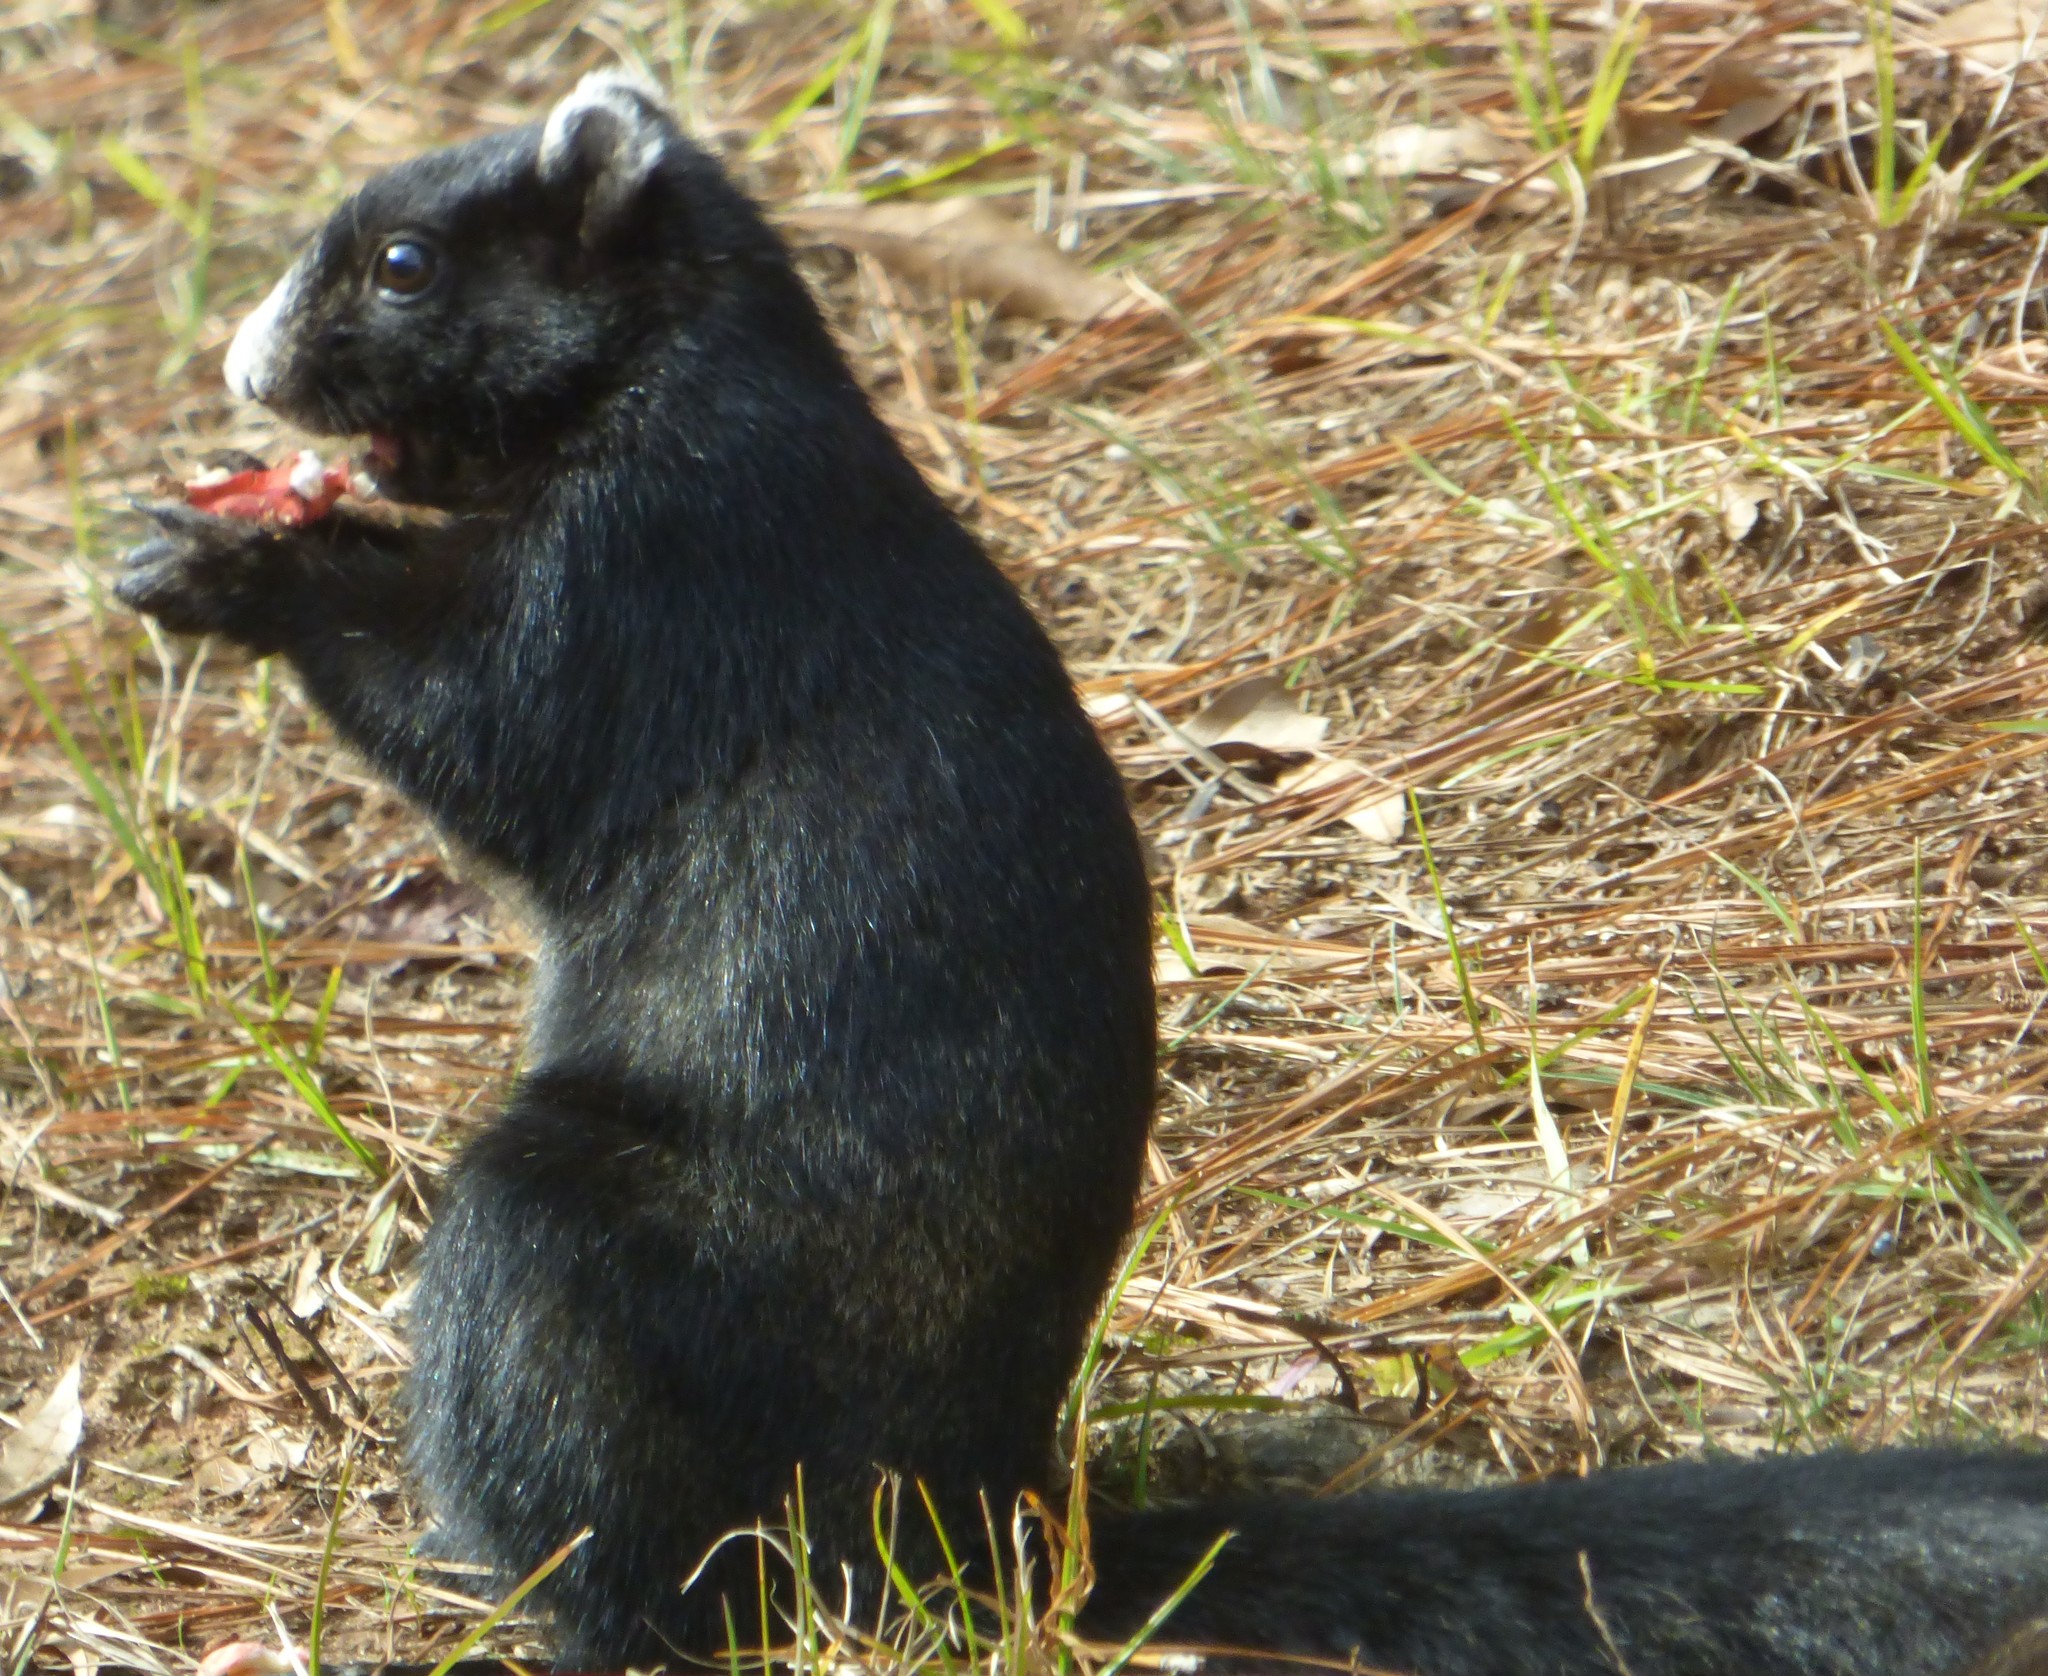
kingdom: Animalia
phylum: Chordata
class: Mammalia
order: Rodentia
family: Sciuridae
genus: Sciurus
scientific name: Sciurus niger
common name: Fox squirrel
